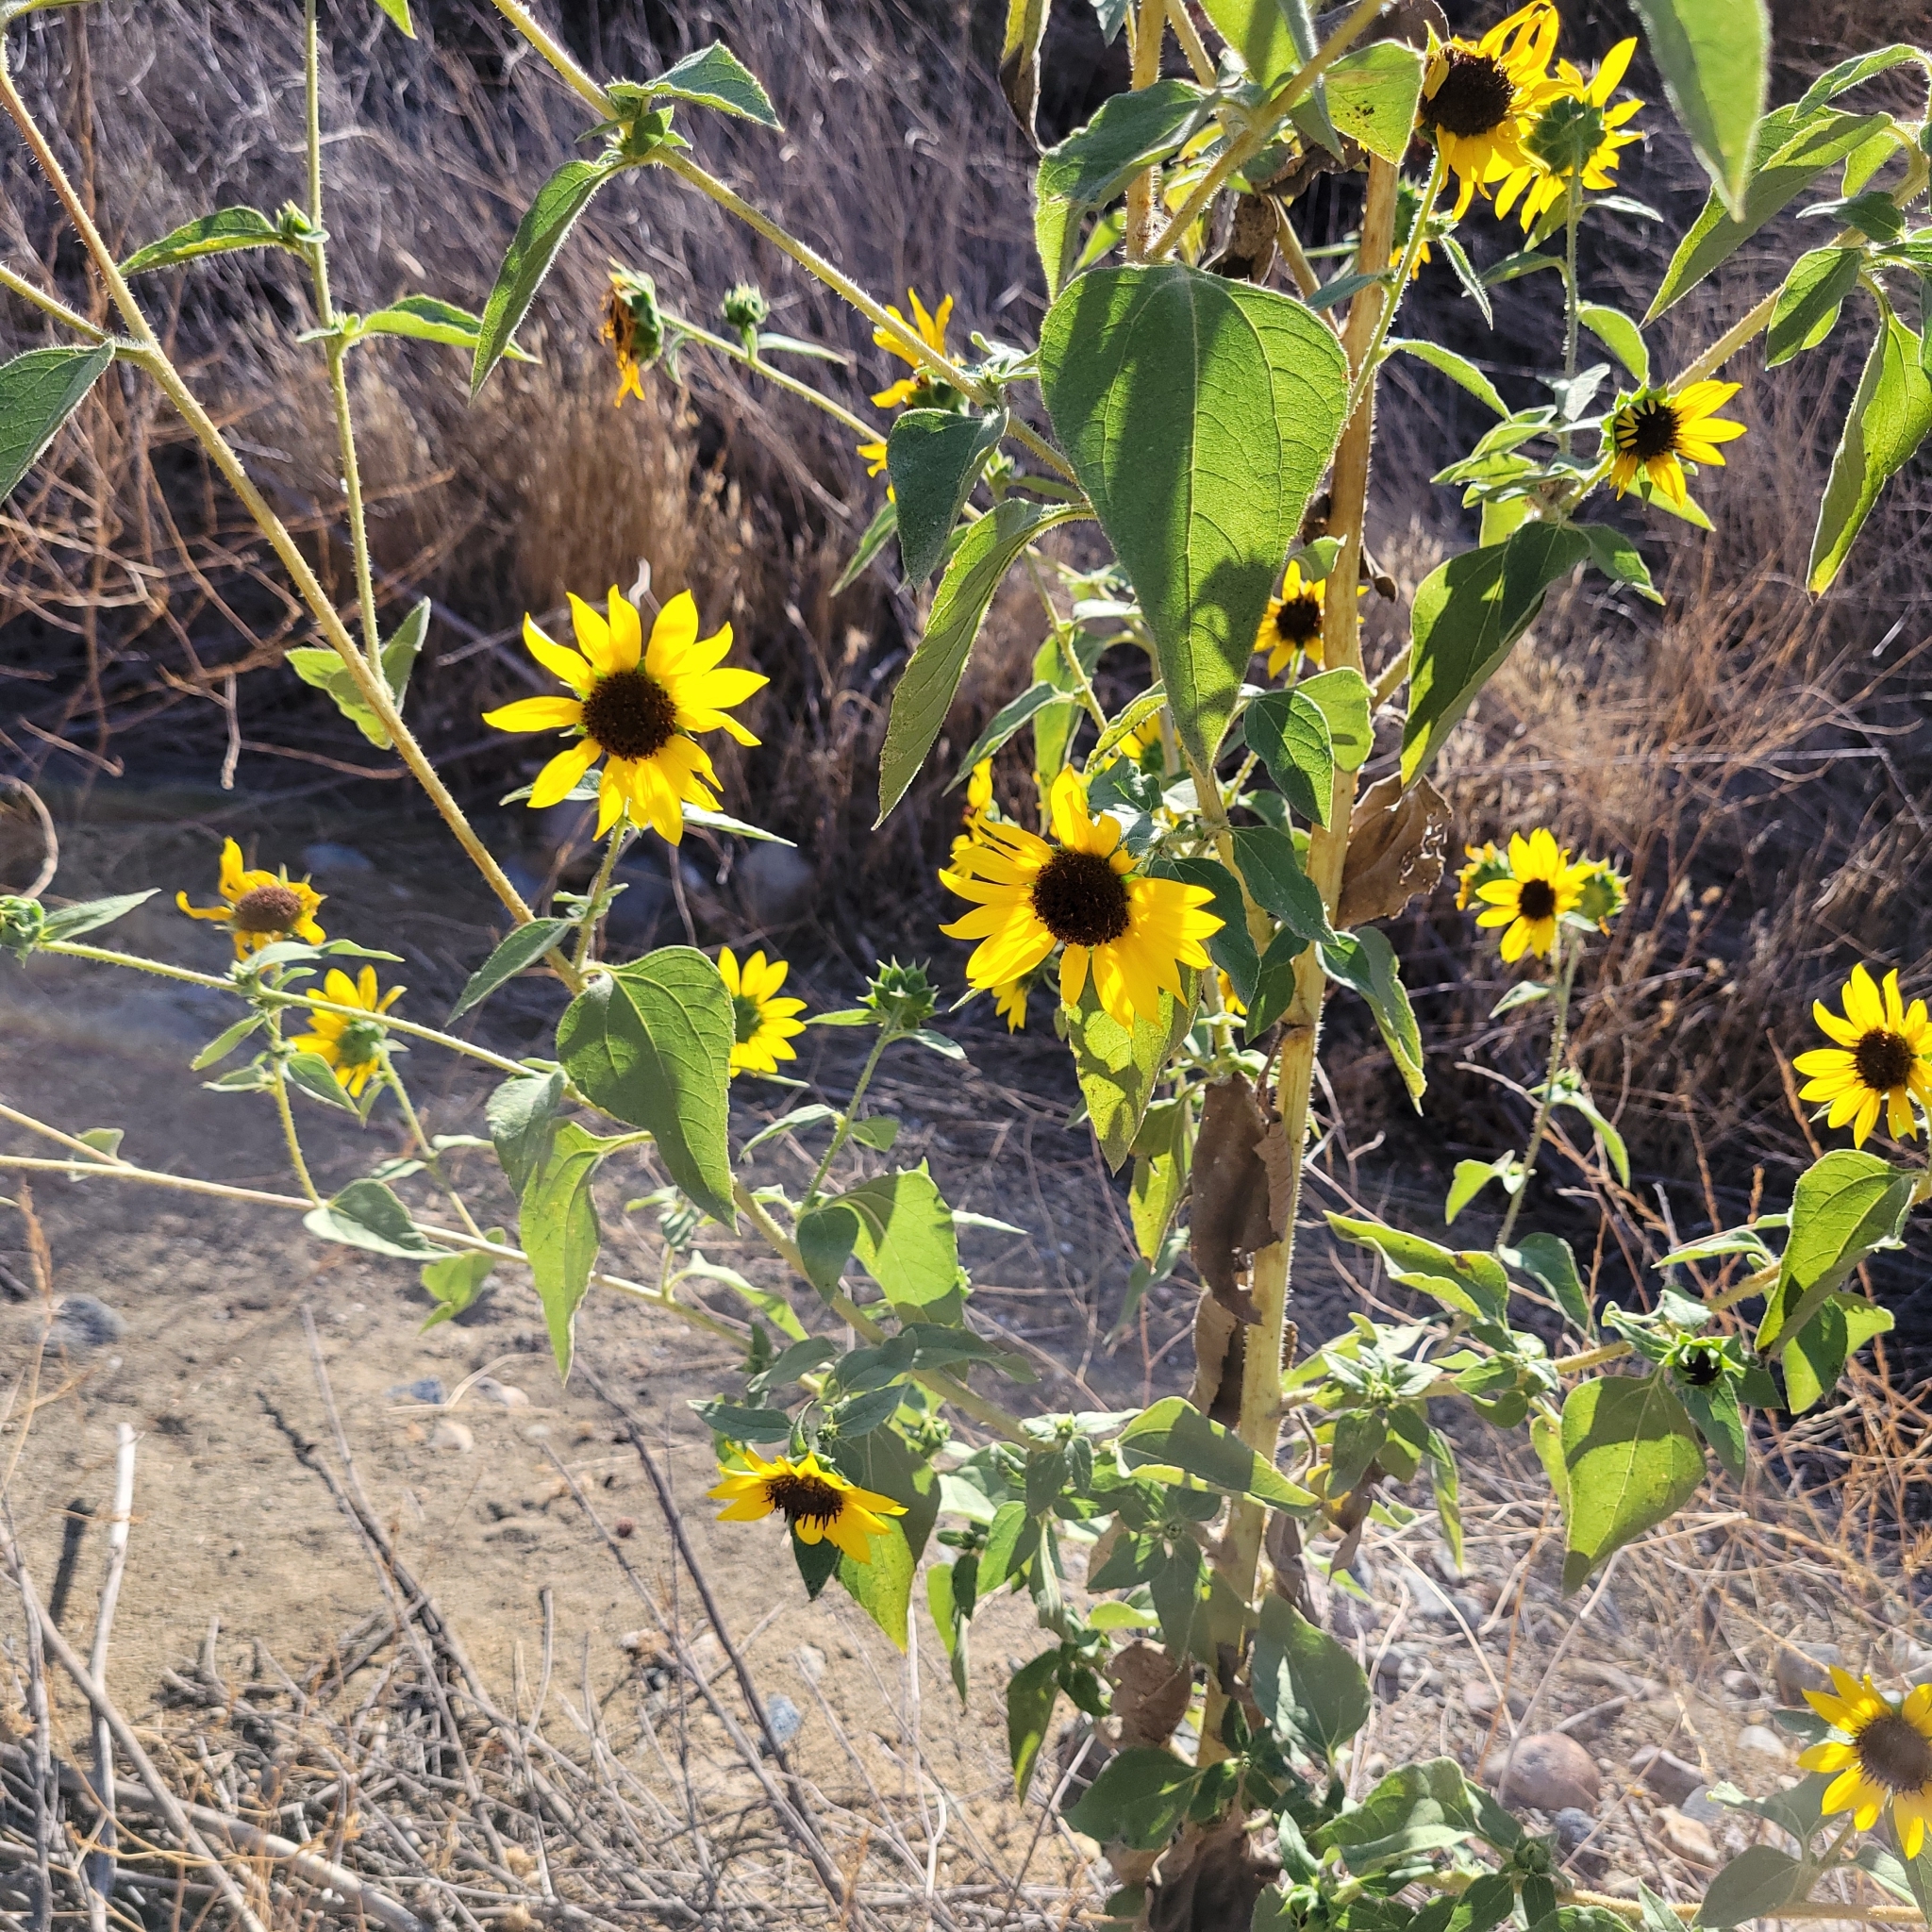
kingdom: Plantae
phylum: Tracheophyta
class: Magnoliopsida
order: Asterales
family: Asteraceae
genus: Helianthus
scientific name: Helianthus annuus
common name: Sunflower
